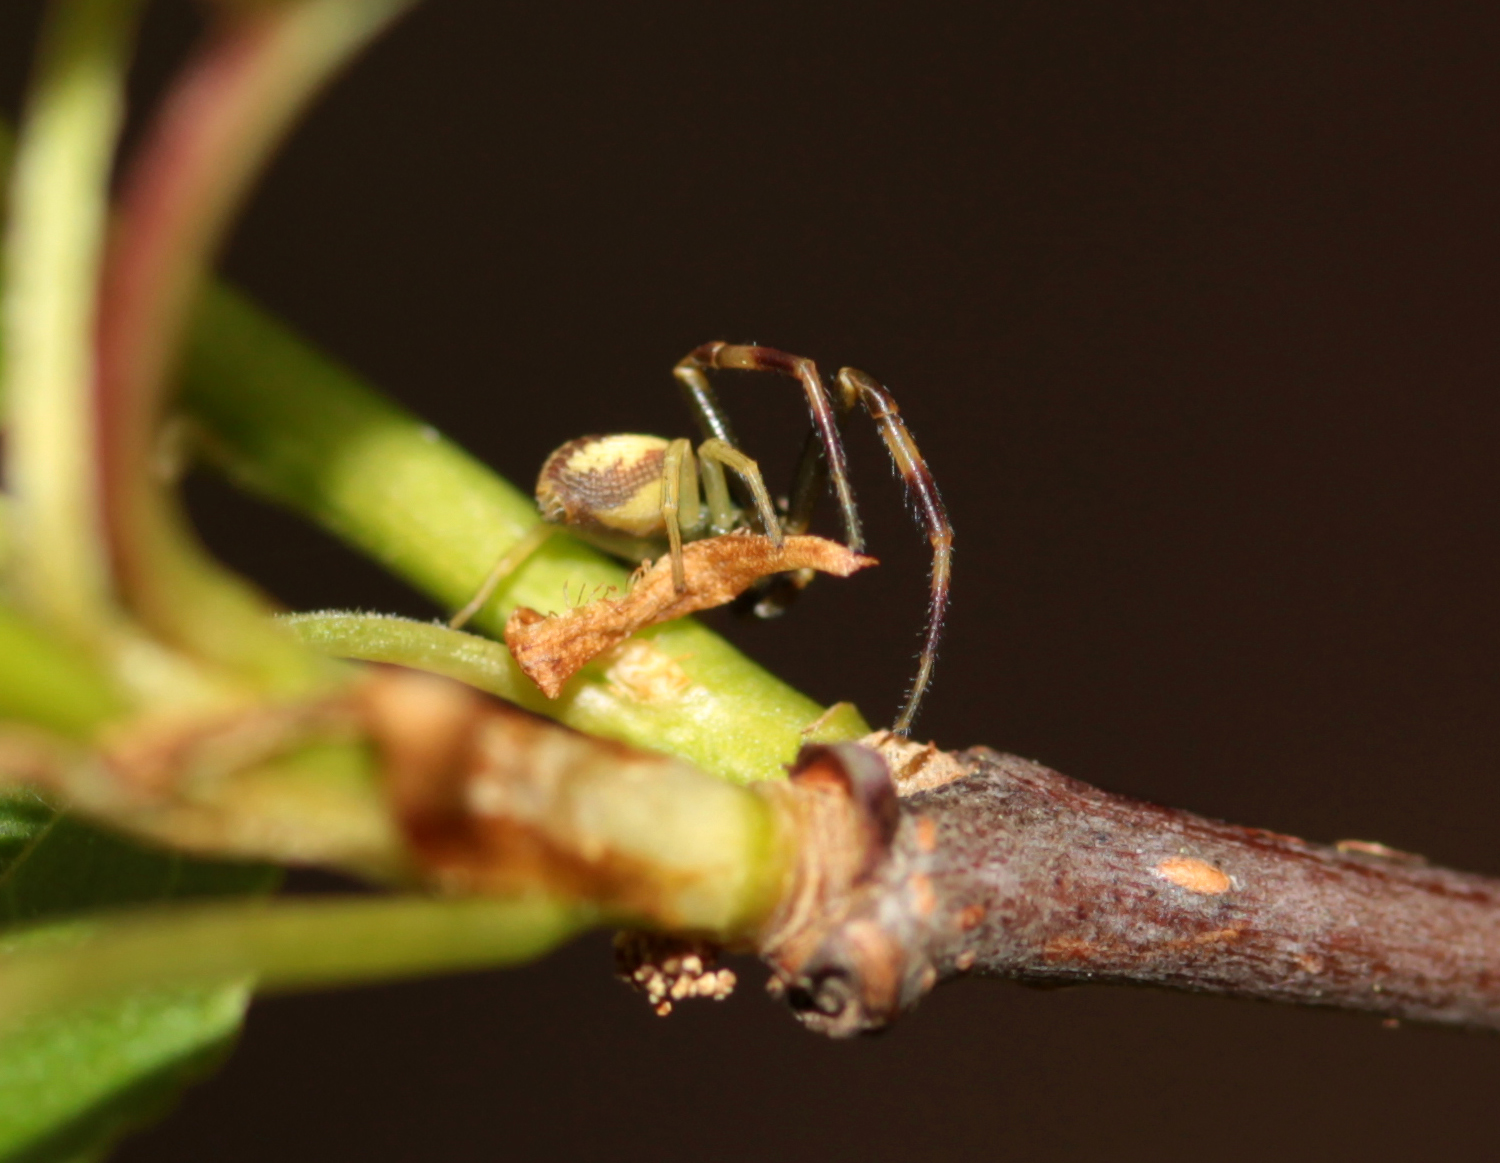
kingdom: Animalia
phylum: Arthropoda
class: Arachnida
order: Araneae
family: Thomisidae
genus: Misumena
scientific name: Misumena vatia
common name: Goldenrod crab spider
